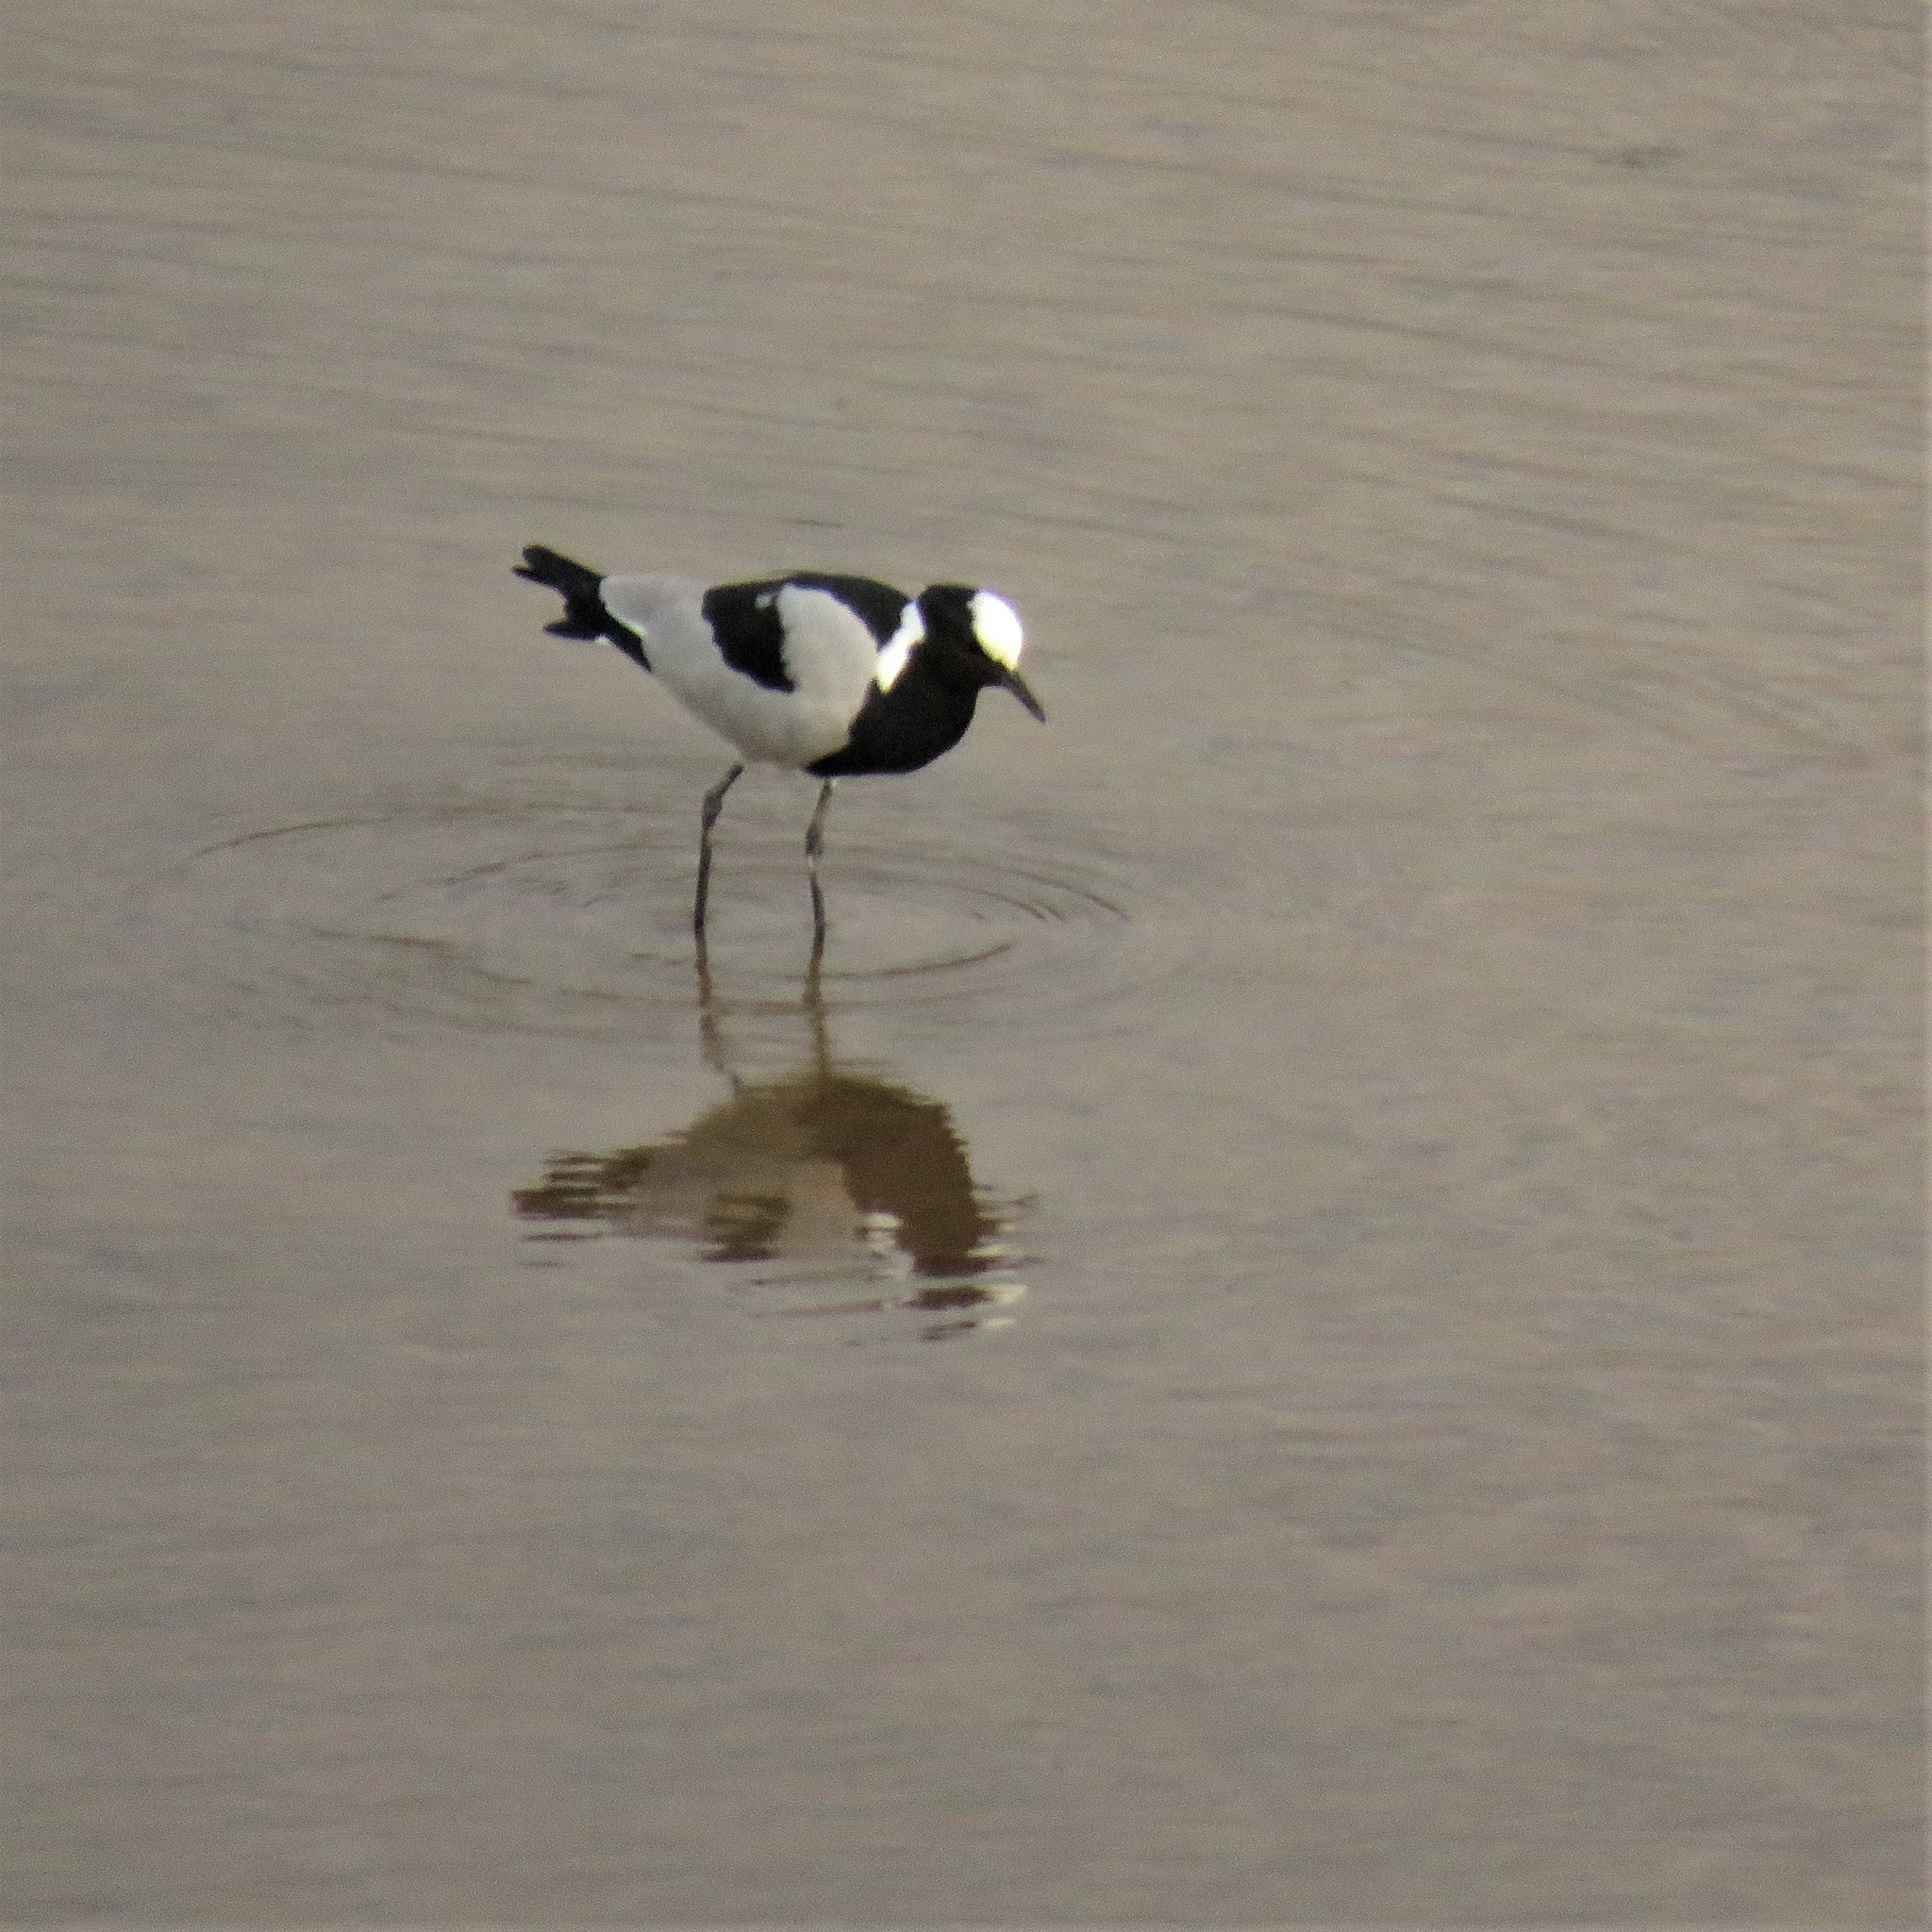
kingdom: Animalia
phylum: Chordata
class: Aves
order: Charadriiformes
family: Charadriidae
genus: Vanellus
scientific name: Vanellus armatus
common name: Blacksmith lapwing
